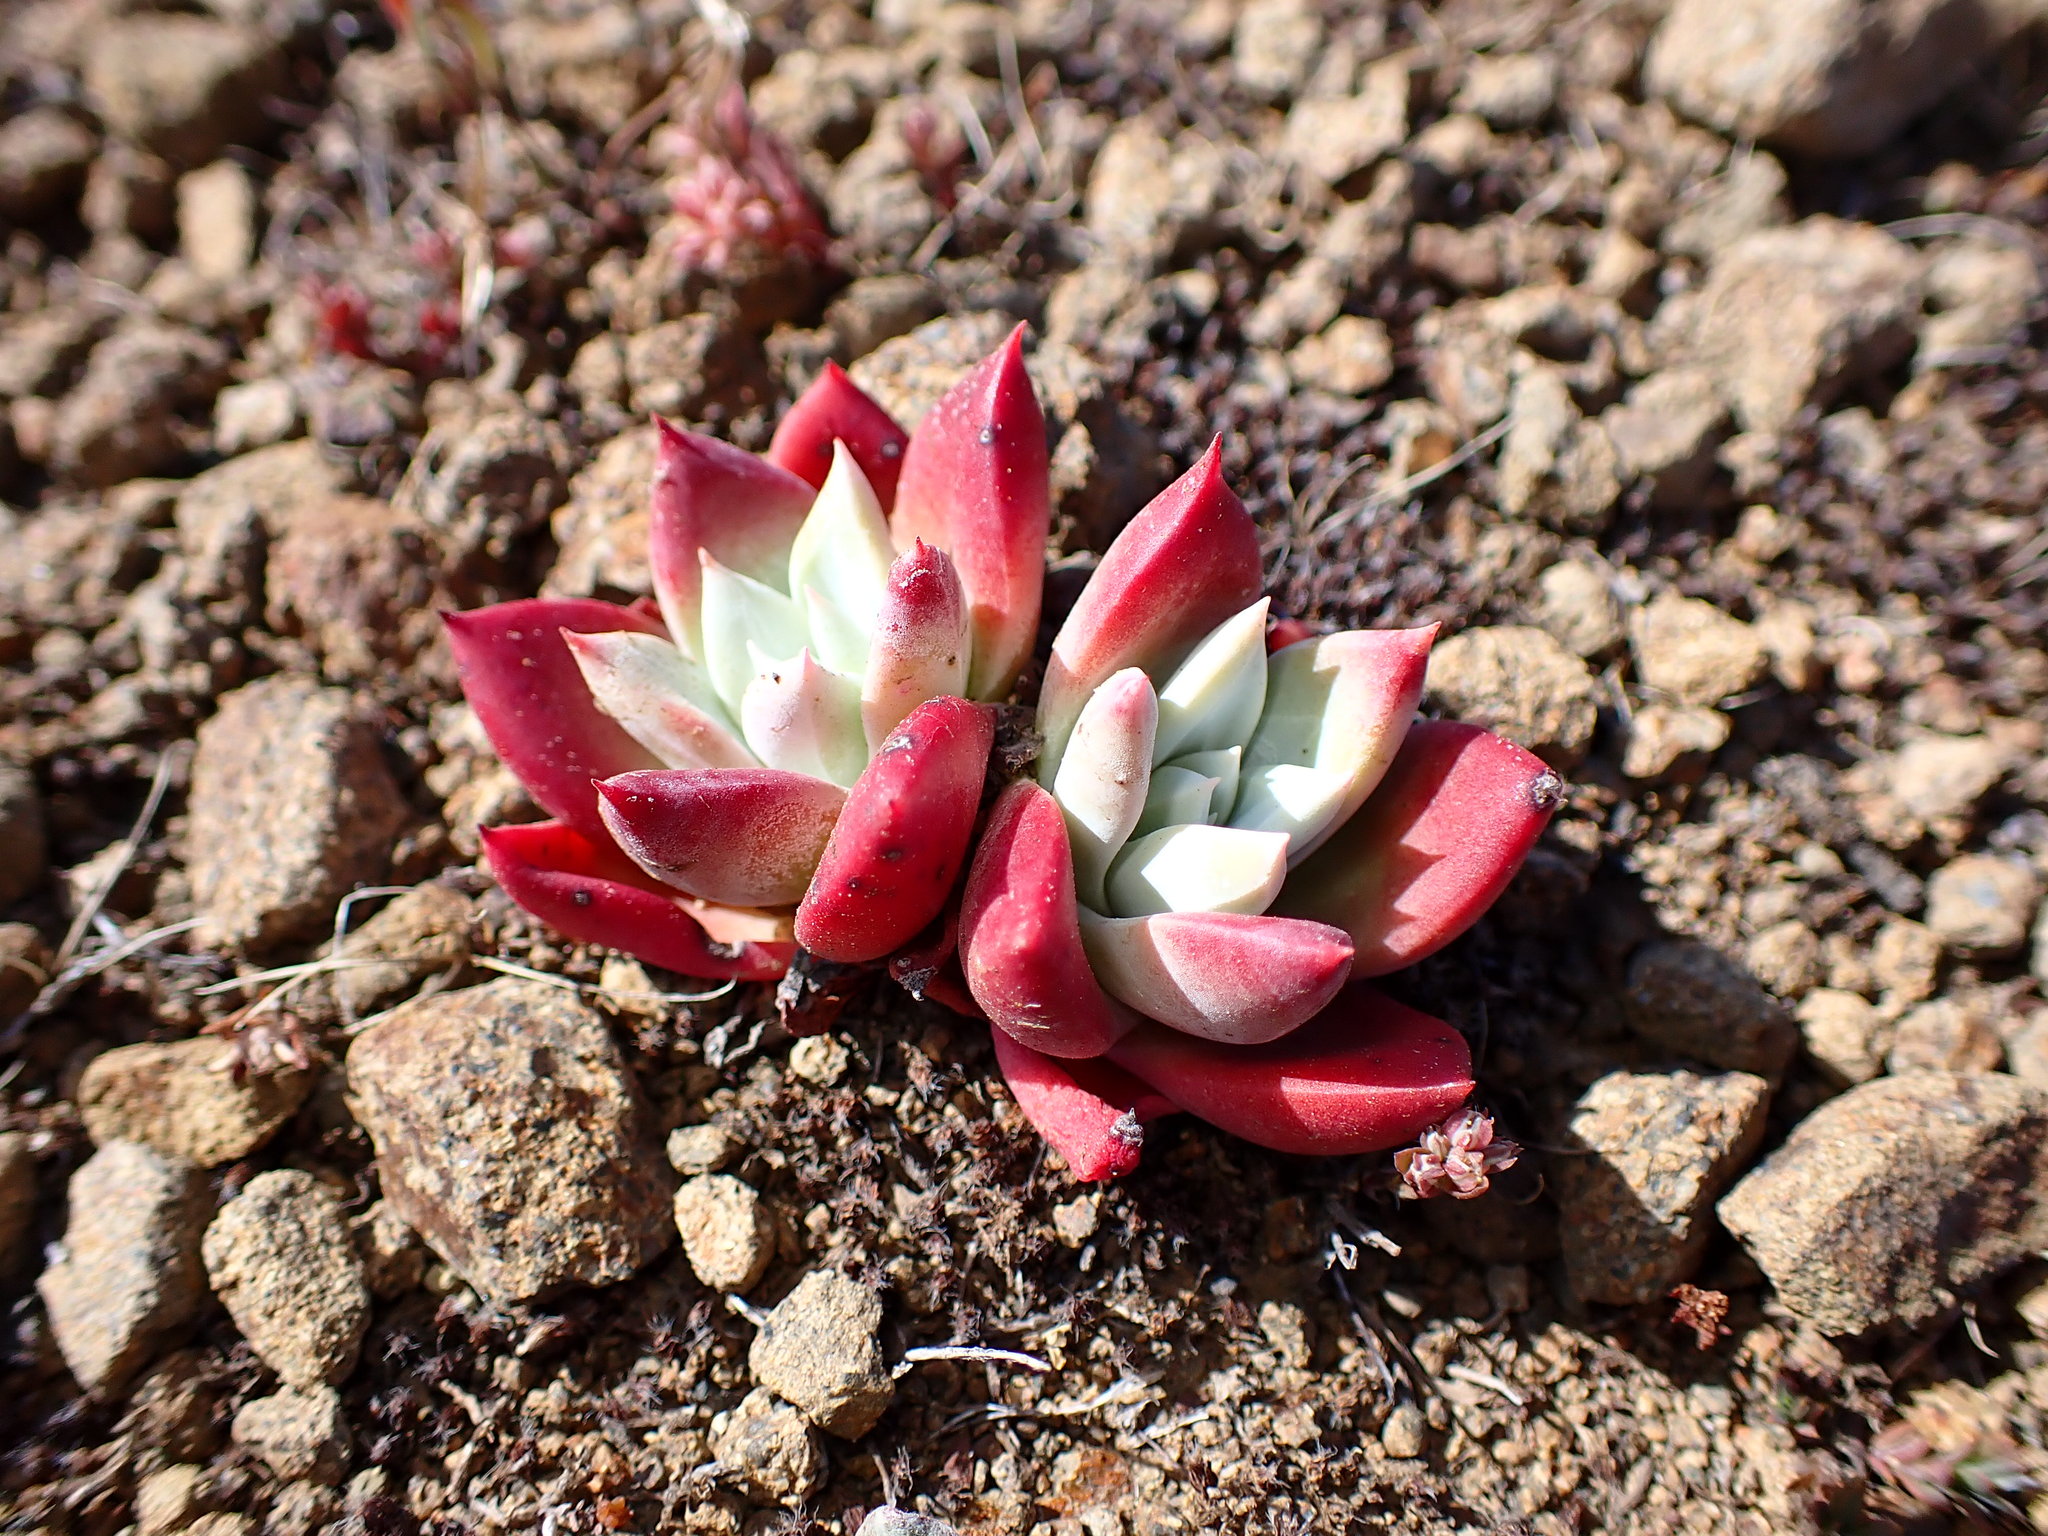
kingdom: Plantae
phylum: Tracheophyta
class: Magnoliopsida
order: Saxifragales
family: Crassulaceae
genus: Dudleya
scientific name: Dudleya farinosa
